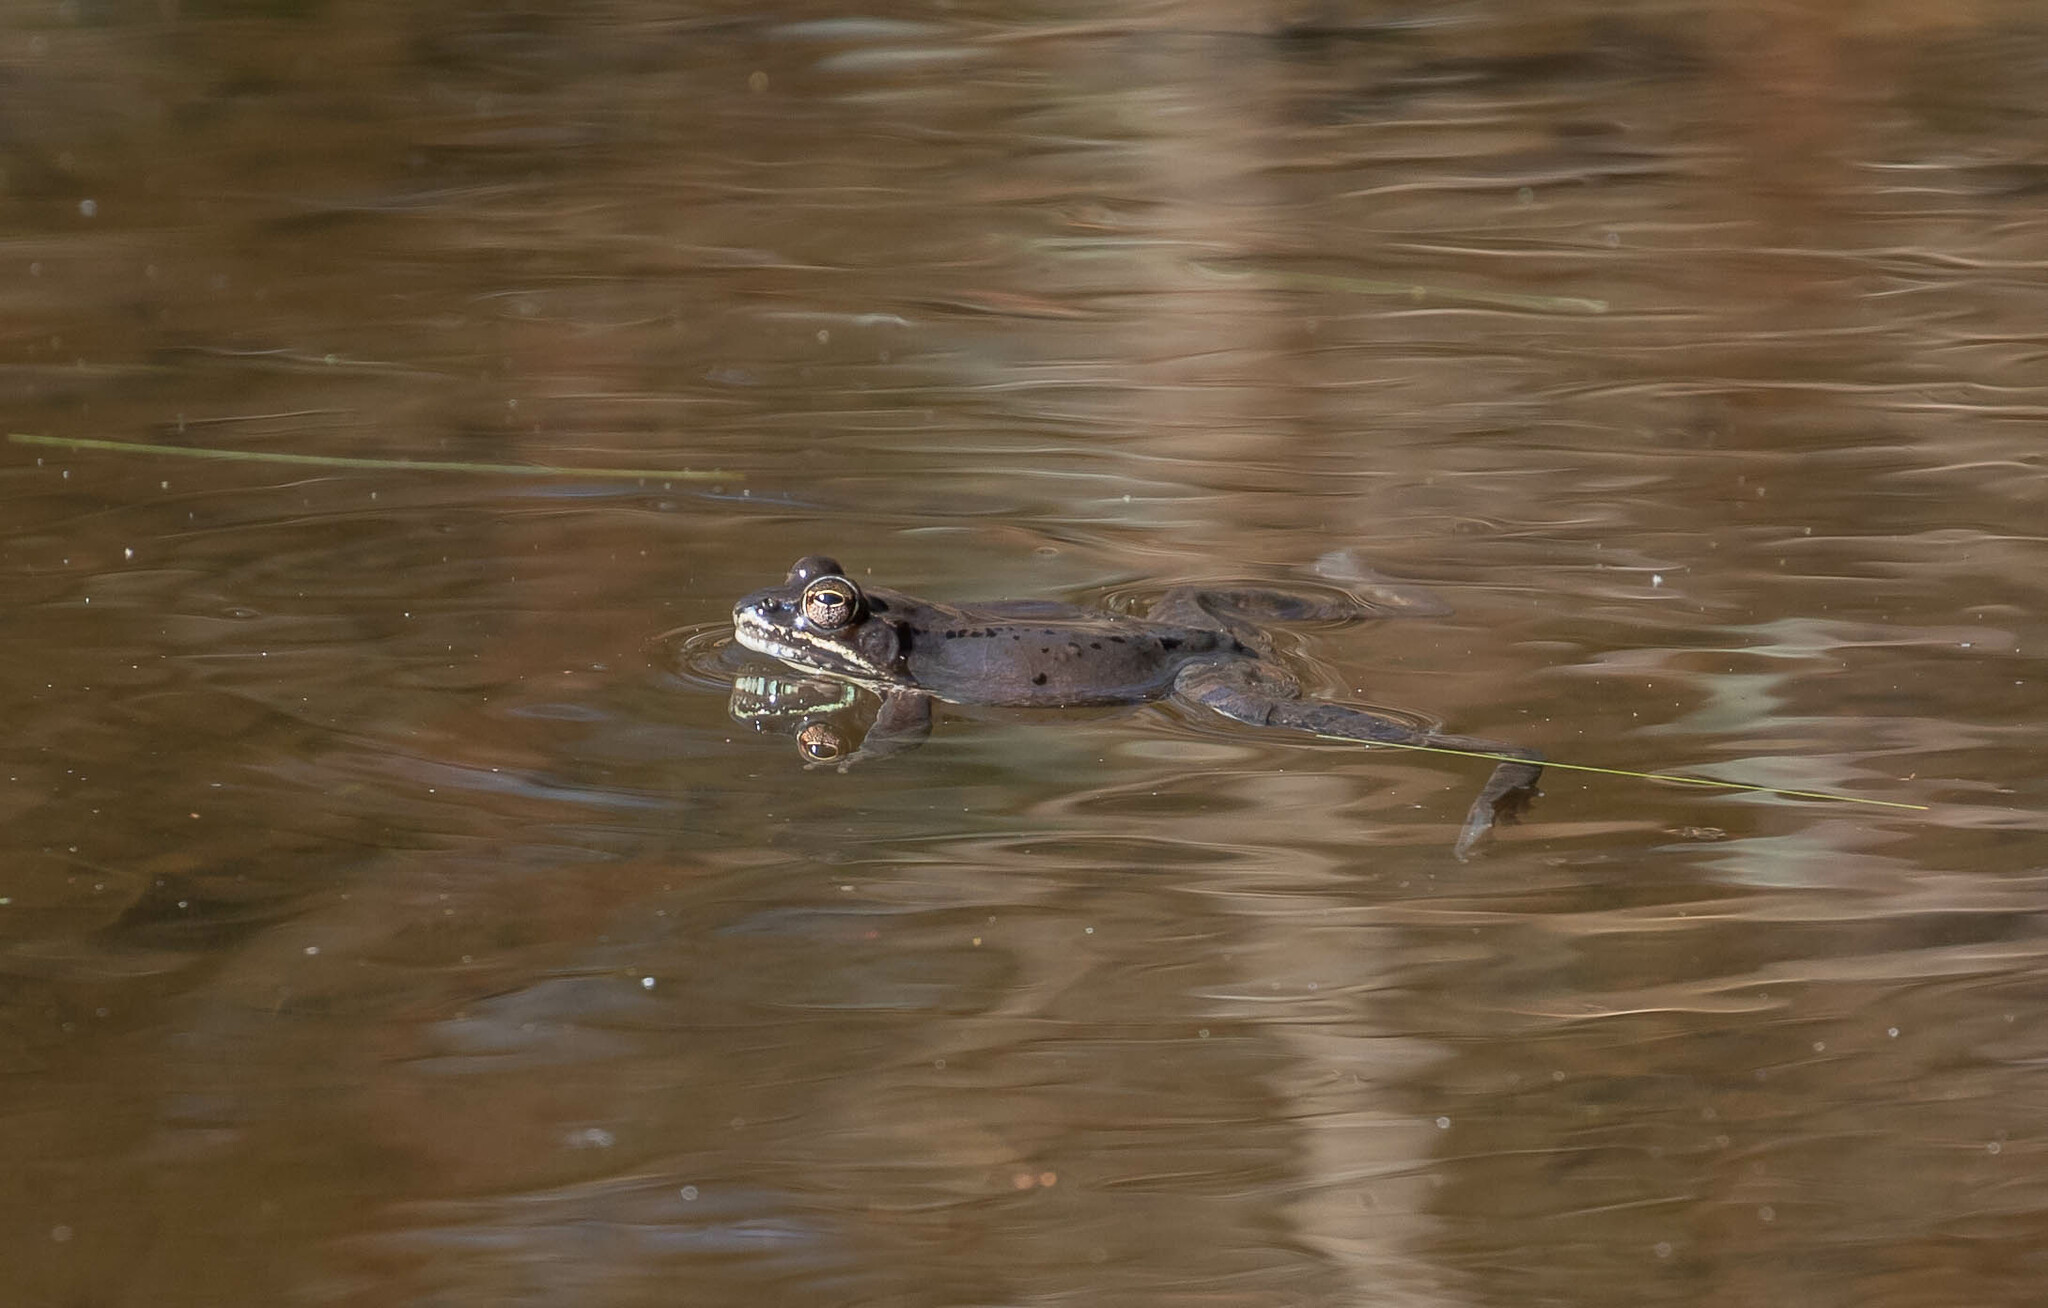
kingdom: Animalia
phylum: Chordata
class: Amphibia
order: Anura
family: Ranidae
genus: Lithobates
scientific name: Lithobates sylvaticus
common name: Wood frog
